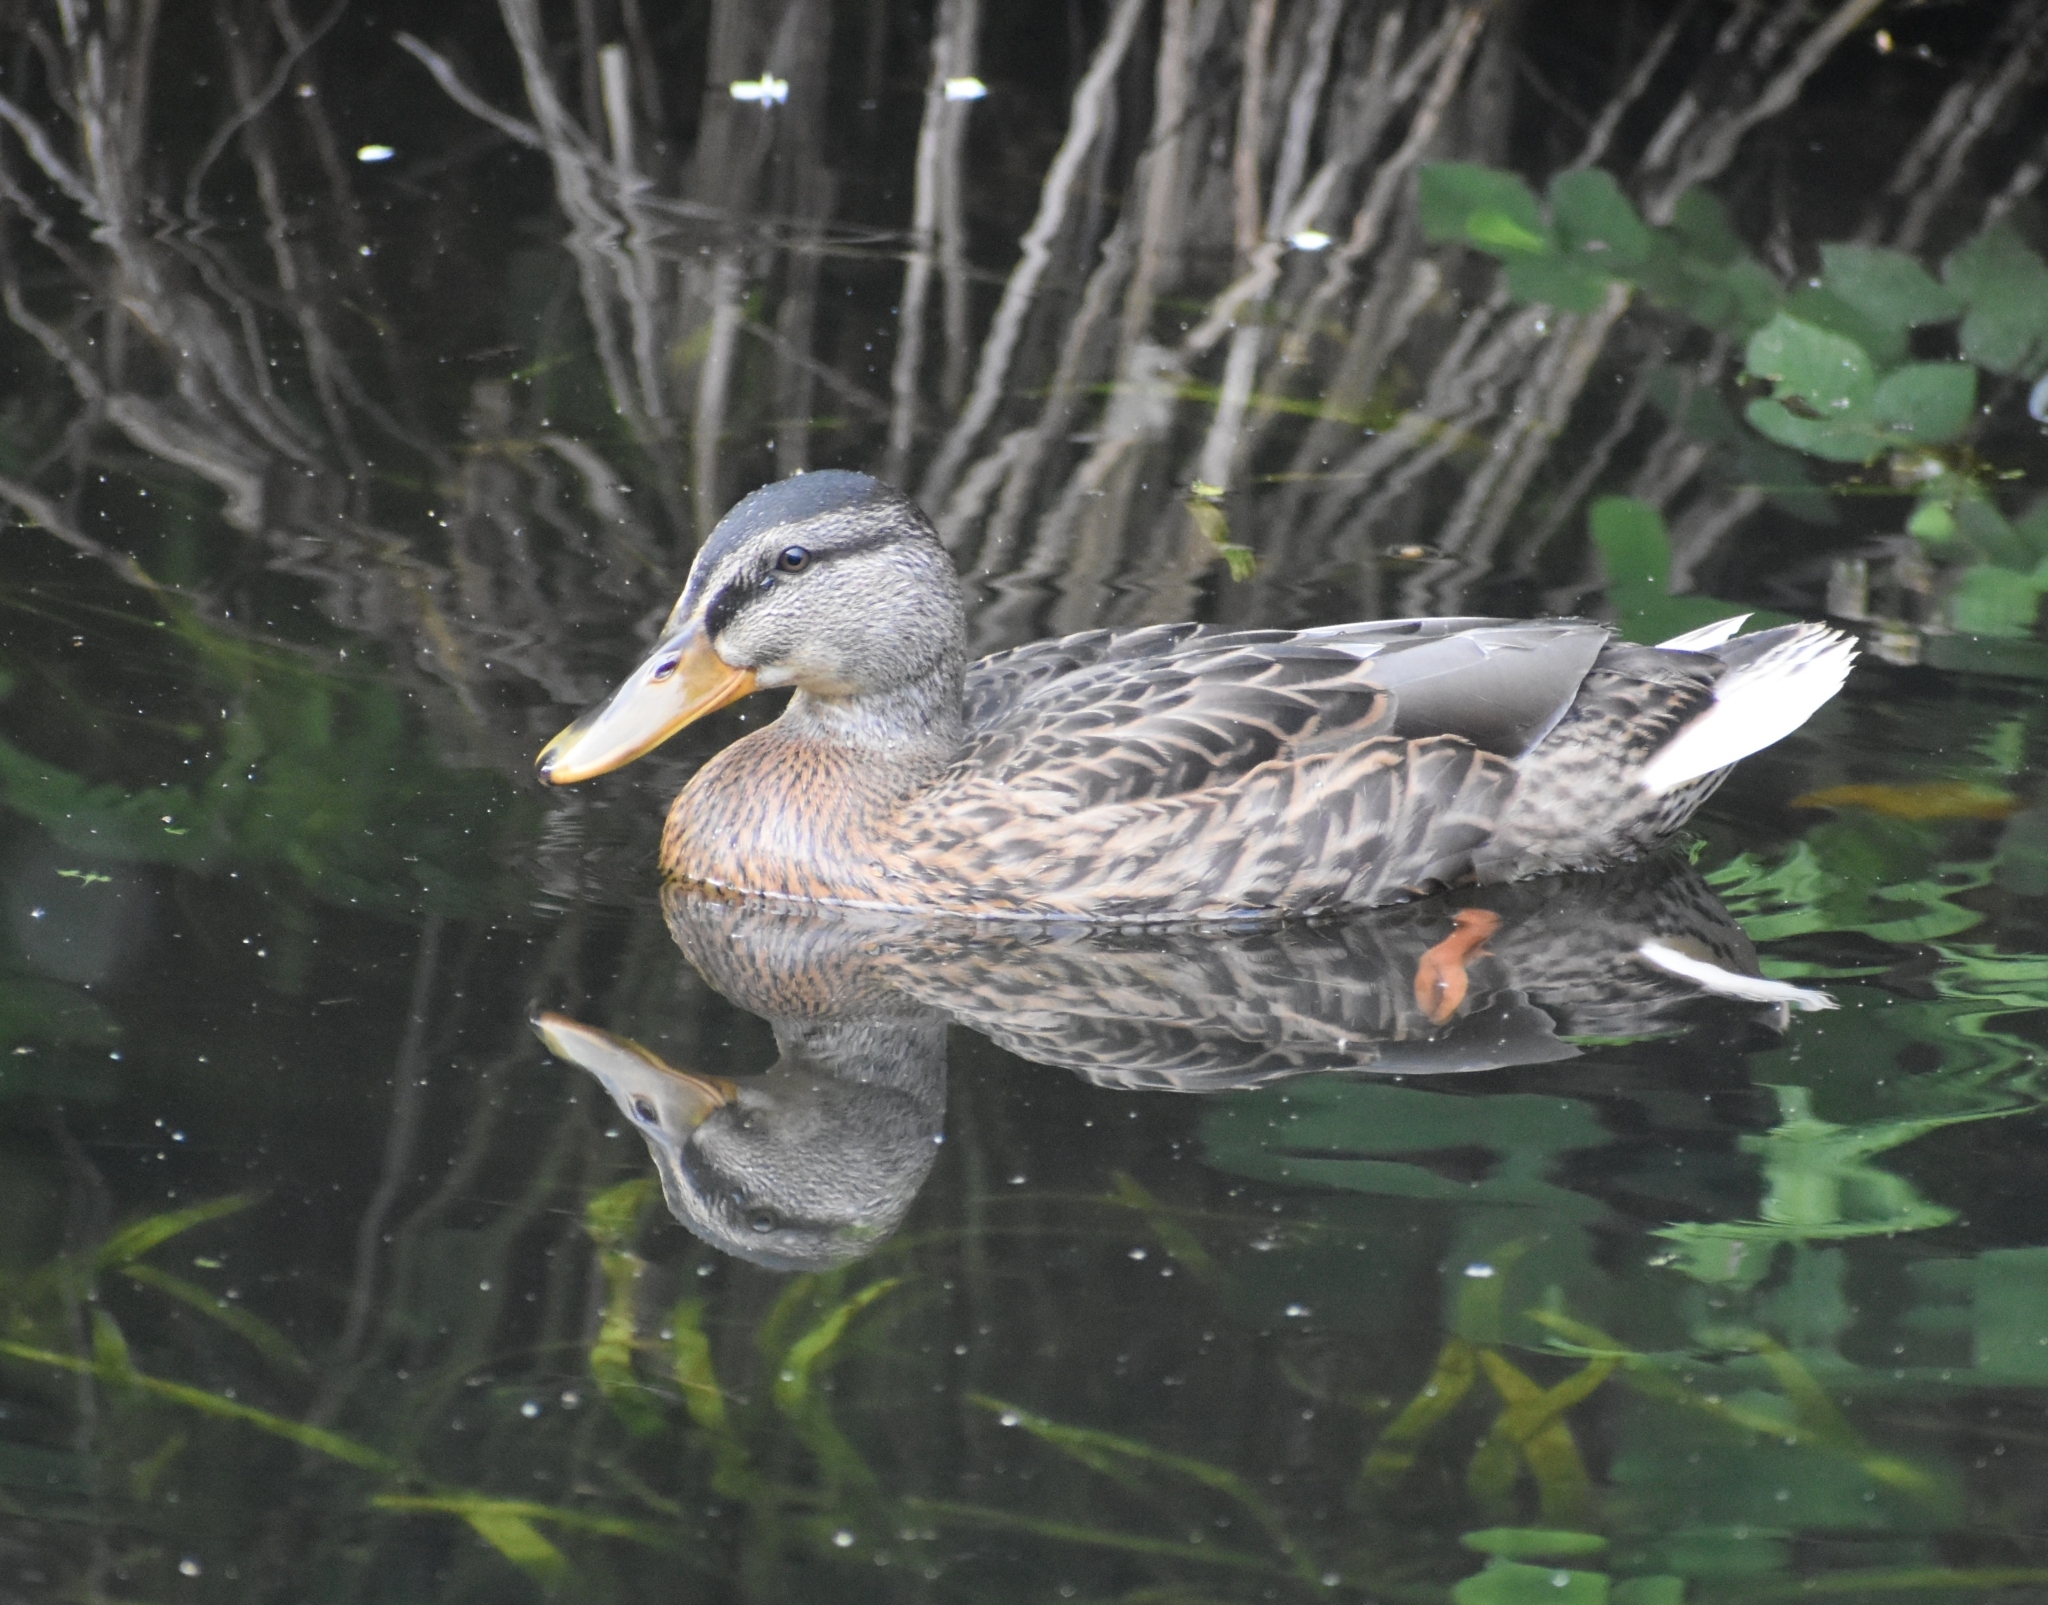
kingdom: Animalia
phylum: Chordata
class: Aves
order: Anseriformes
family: Anatidae
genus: Anas
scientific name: Anas platyrhynchos
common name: Mallard
